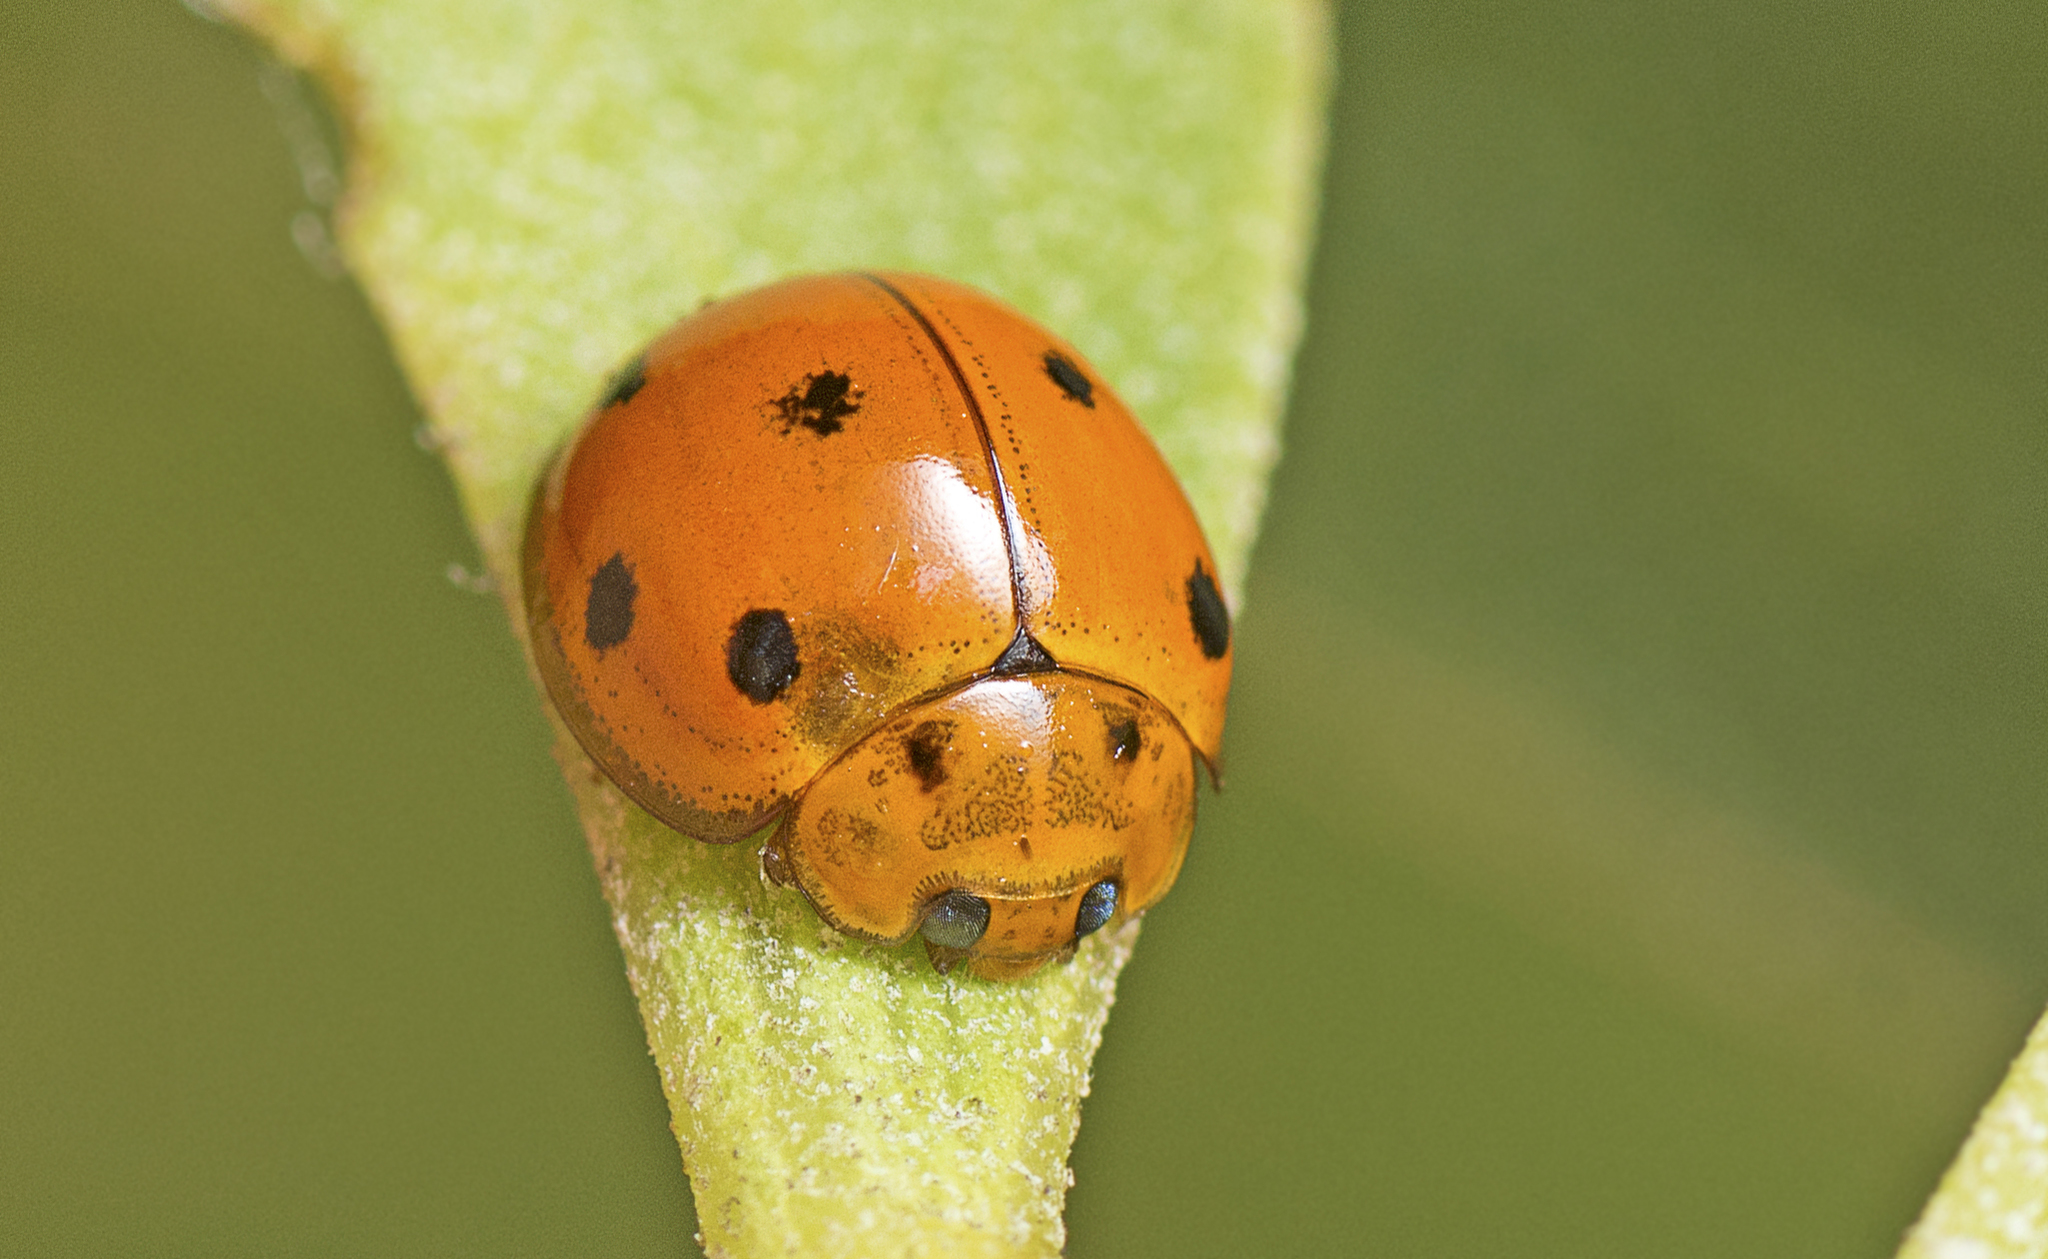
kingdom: Animalia
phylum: Arthropoda
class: Insecta
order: Coleoptera
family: Coccinellidae
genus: Coelophora
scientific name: Coelophora inaequalis
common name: Common australian lady beetle
